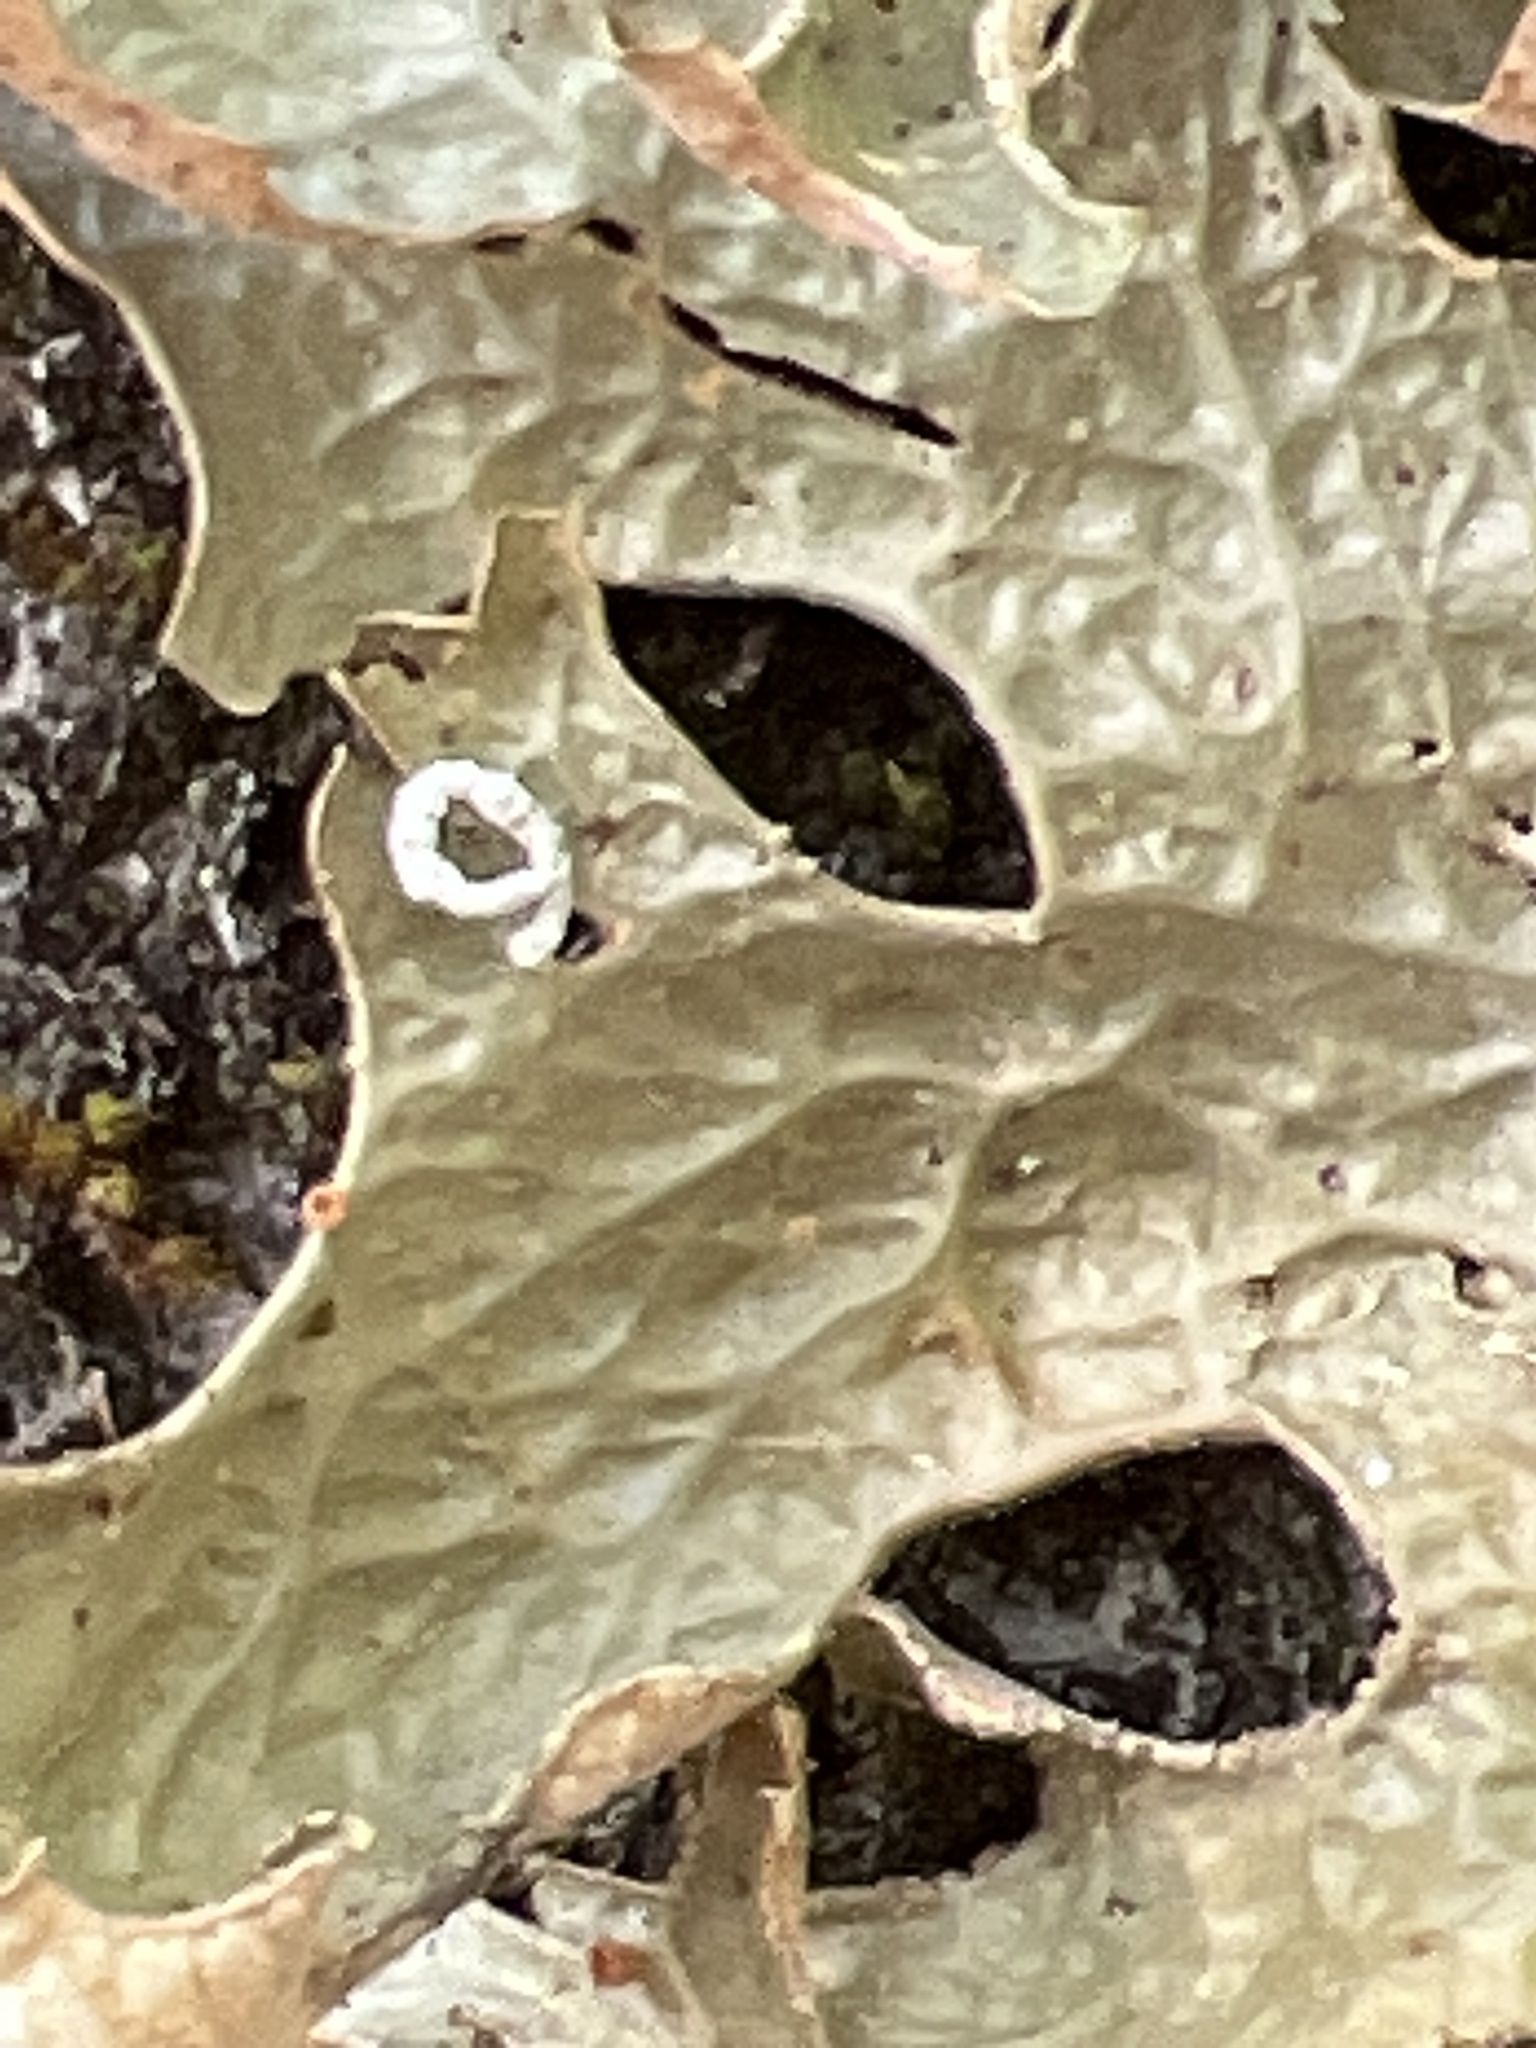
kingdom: Fungi
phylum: Ascomycota
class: Lecanoromycetes
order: Peltigerales
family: Lobariaceae
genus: Lobaria
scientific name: Lobaria pulmonaria
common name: Lungwort
